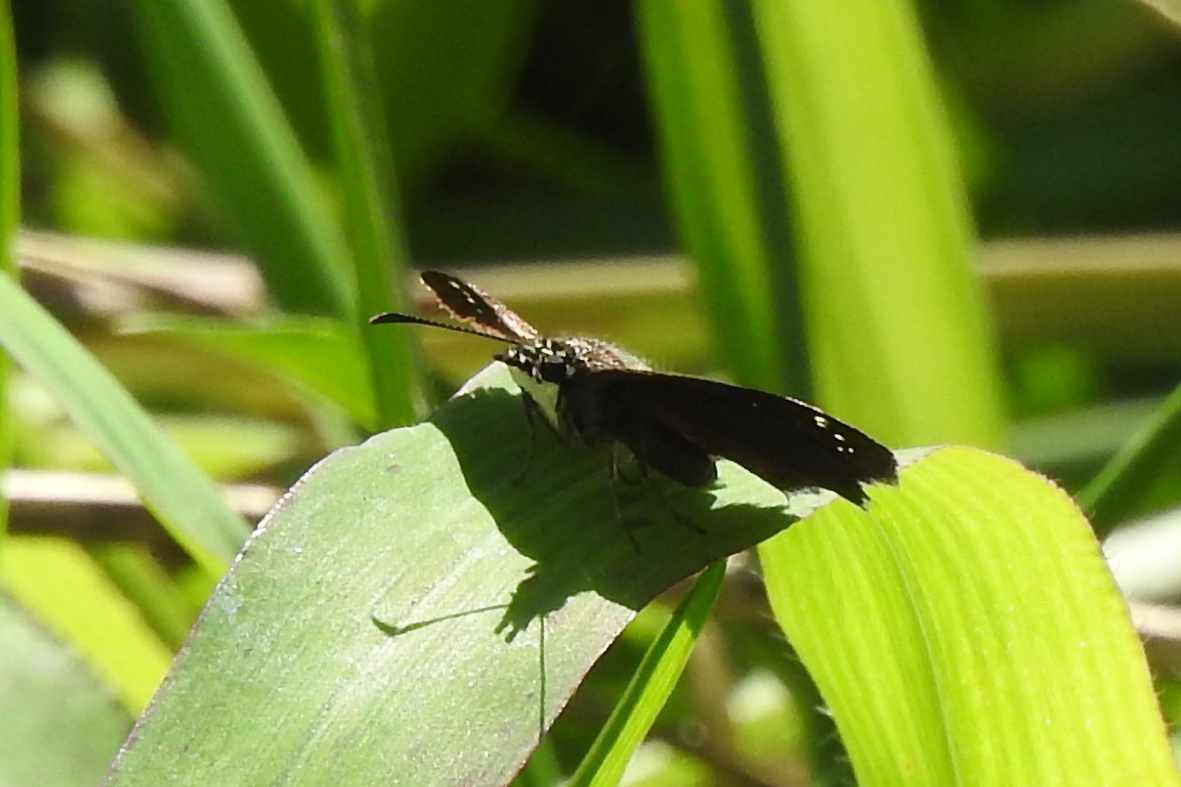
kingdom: Animalia
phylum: Arthropoda
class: Insecta
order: Lepidoptera
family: Hesperiidae
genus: Pholisora
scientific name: Pholisora catullus
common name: Common sootywing
